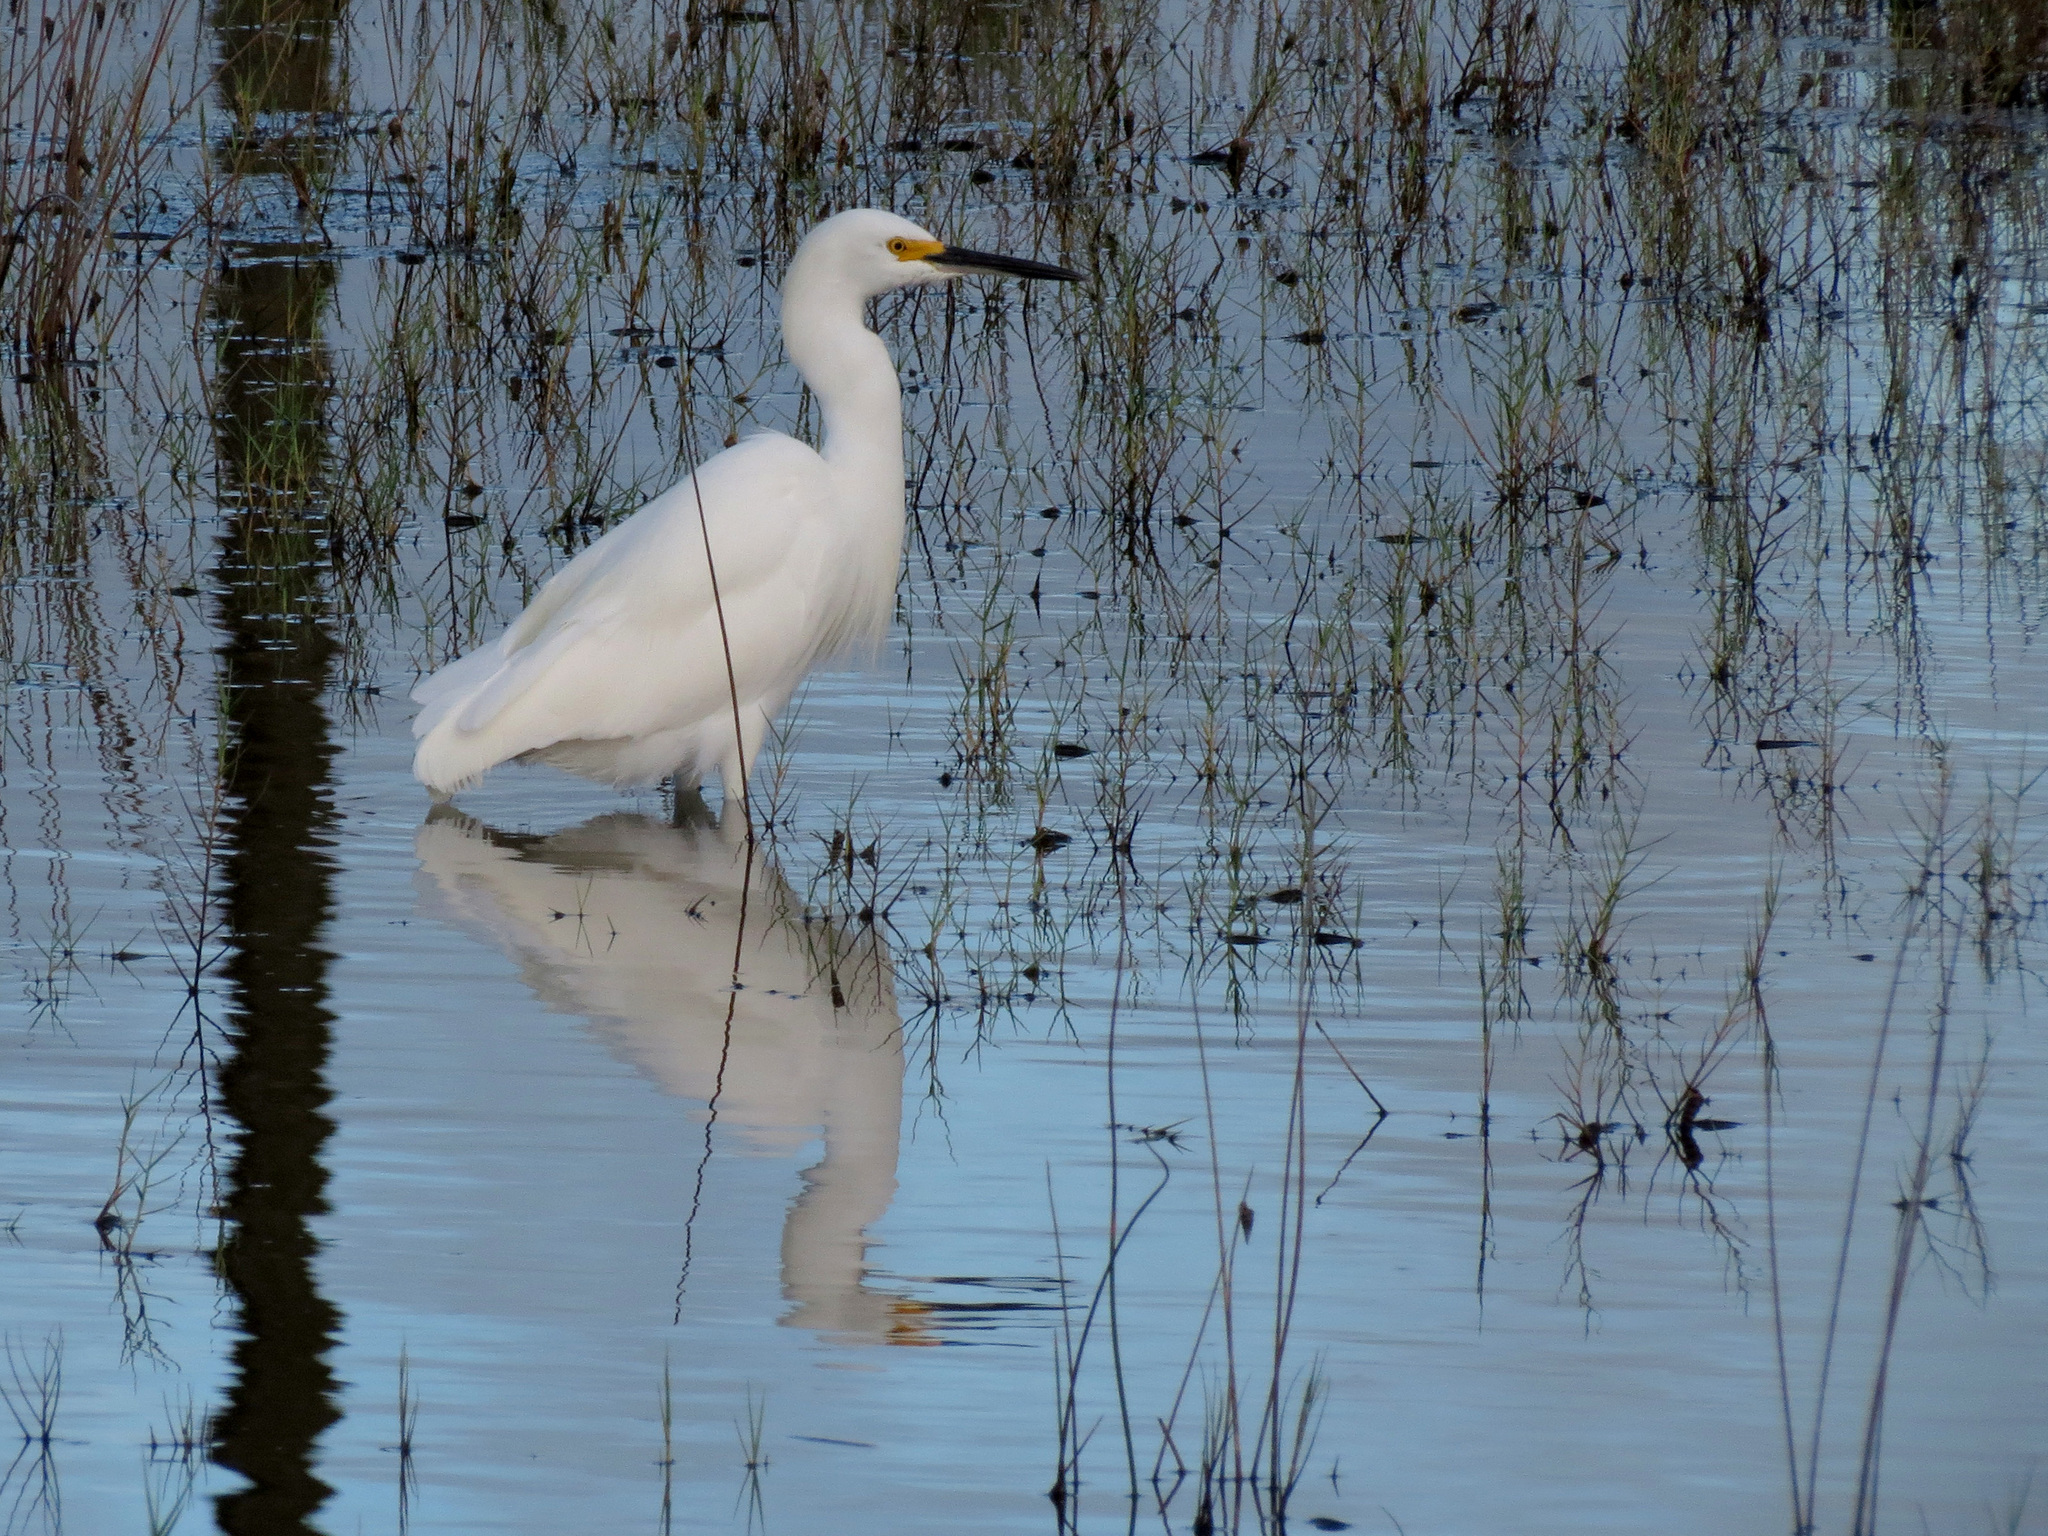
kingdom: Animalia
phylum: Chordata
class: Aves
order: Pelecaniformes
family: Ardeidae
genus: Egretta
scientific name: Egretta thula
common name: Snowy egret
